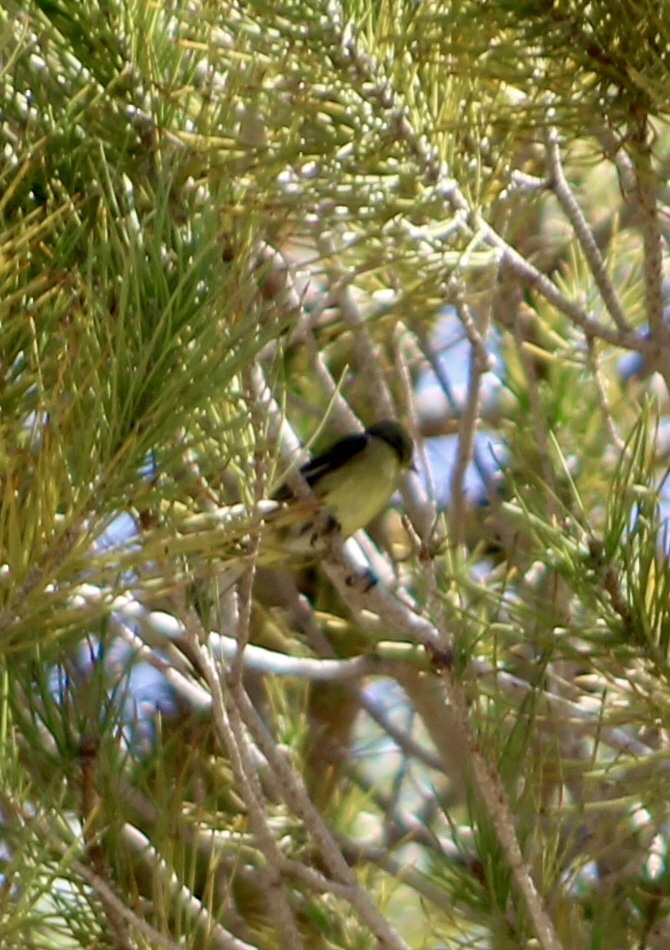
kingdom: Animalia
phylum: Chordata
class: Aves
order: Passeriformes
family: Fringillidae
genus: Spinus
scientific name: Spinus psaltria
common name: Lesser goldfinch
